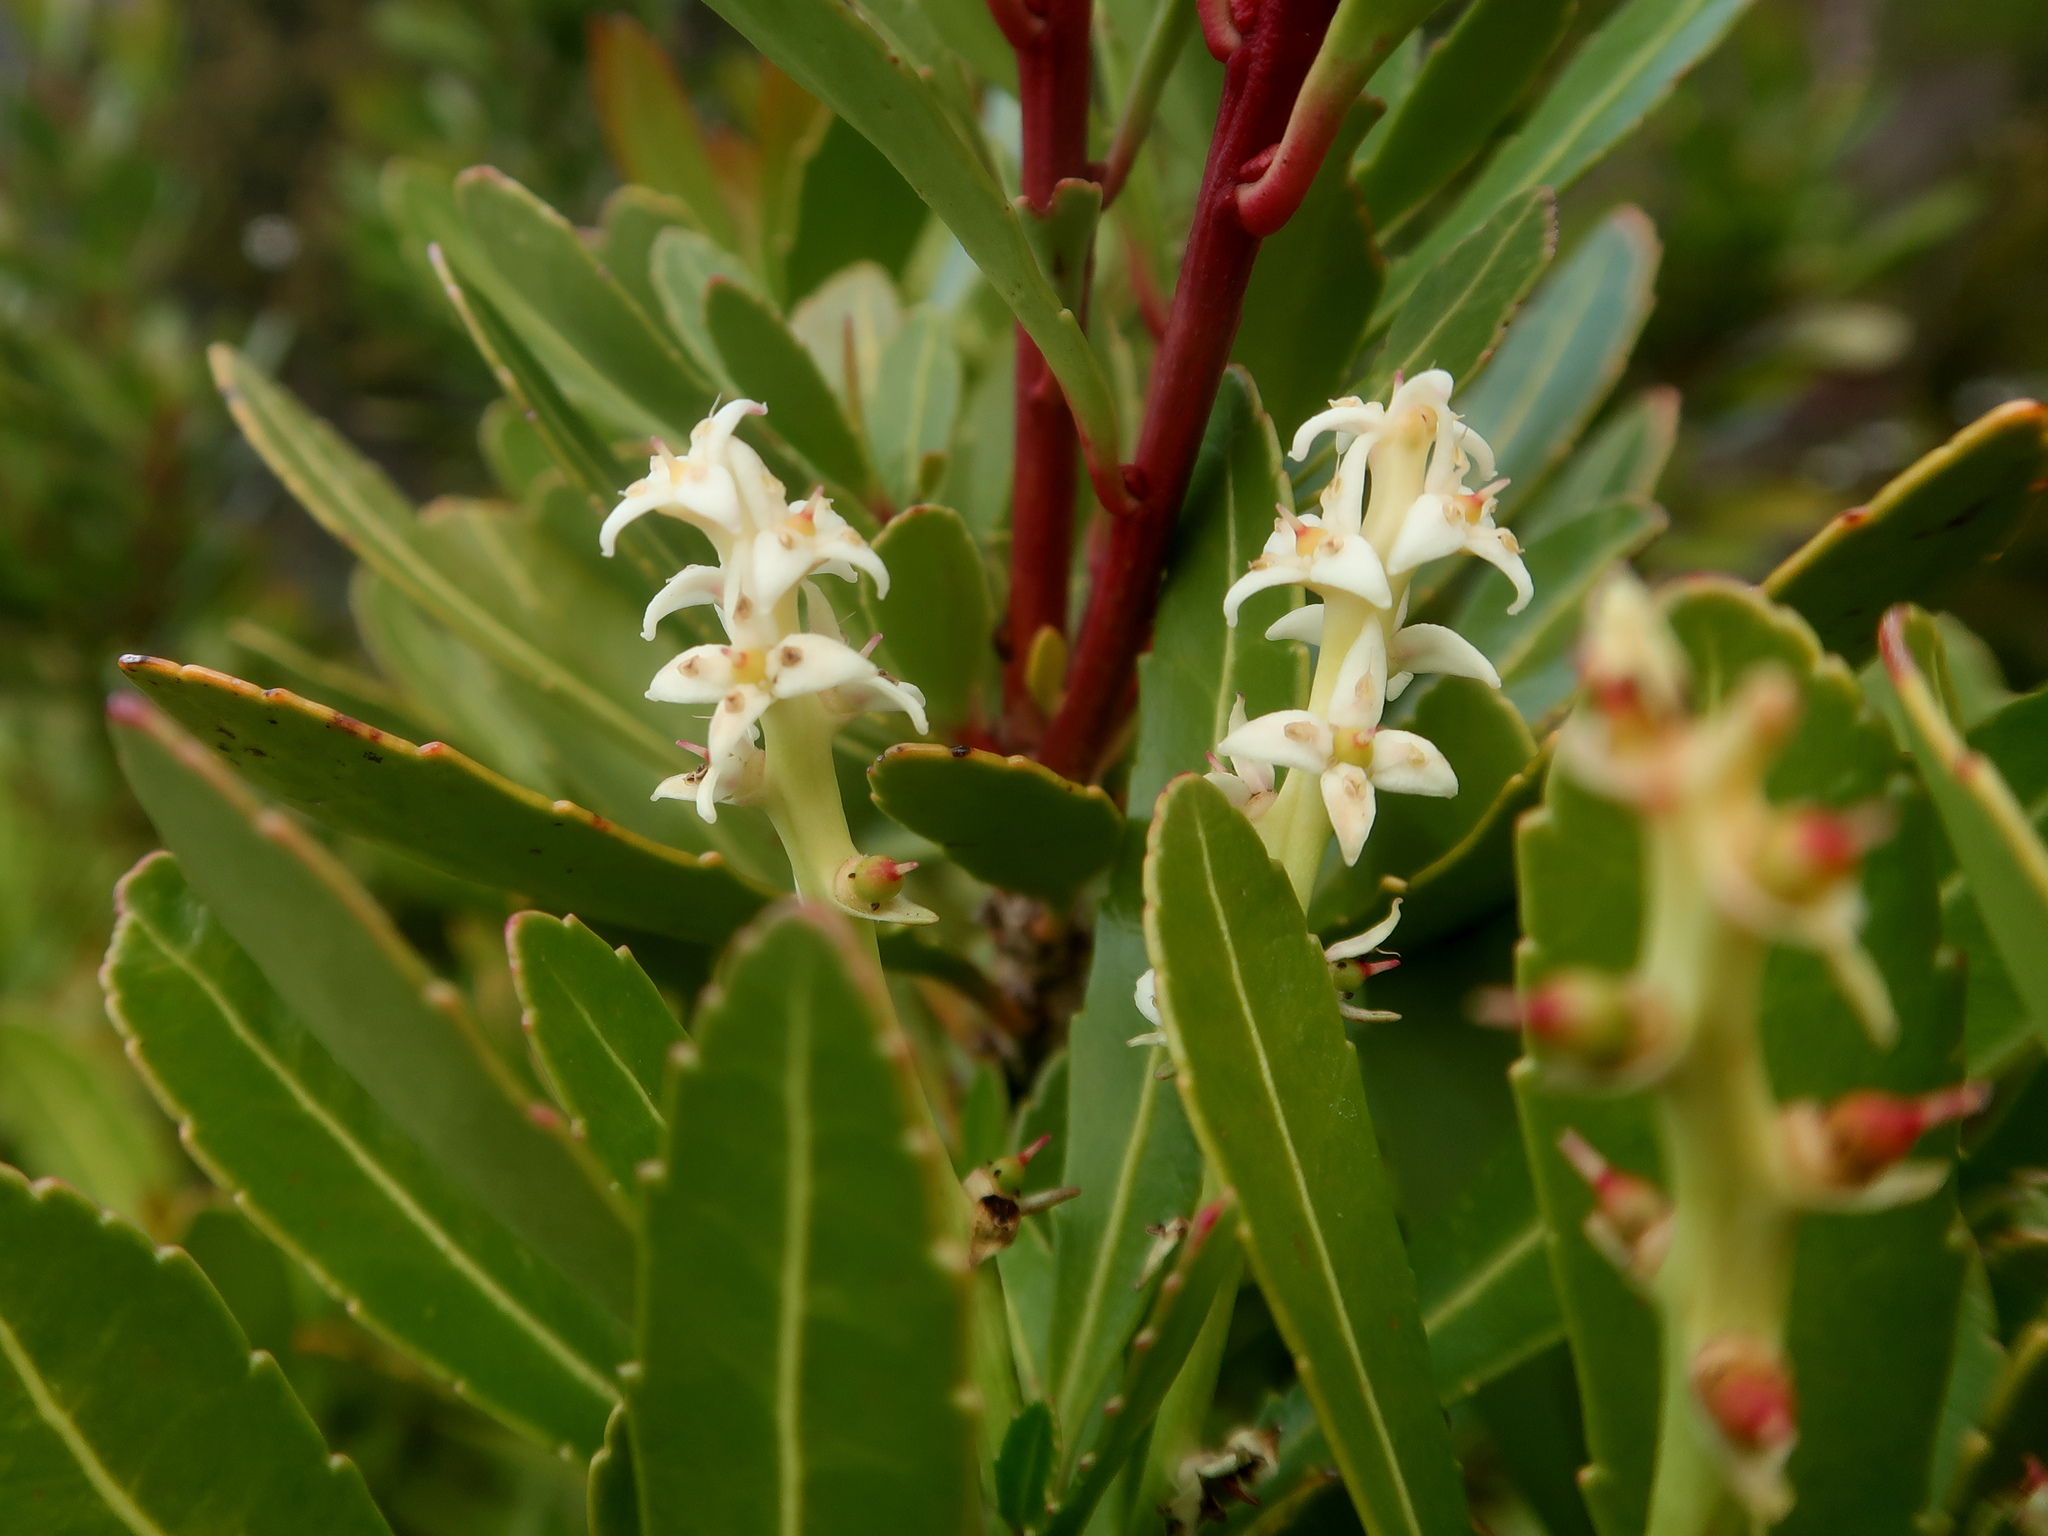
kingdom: Plantae
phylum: Tracheophyta
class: Magnoliopsida
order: Proteales
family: Proteaceae
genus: Cenarrhenes
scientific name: Cenarrhenes nitida
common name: Native plum
